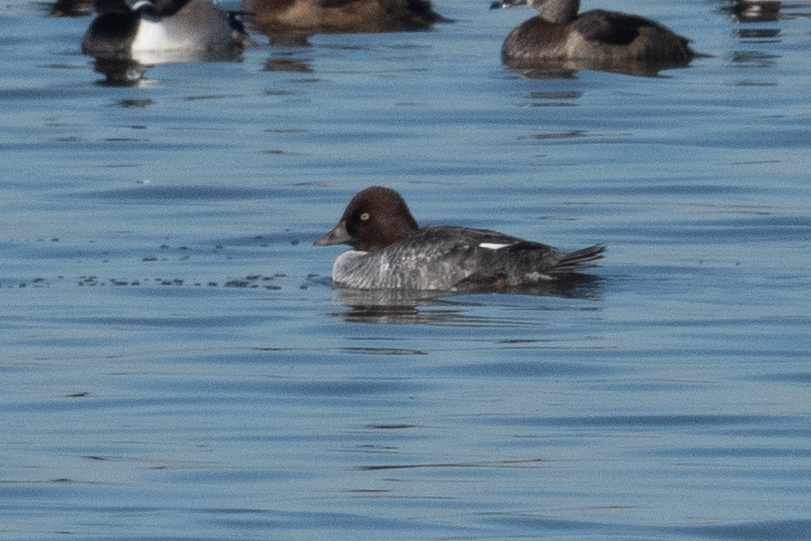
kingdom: Animalia
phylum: Chordata
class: Aves
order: Anseriformes
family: Anatidae
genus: Bucephala
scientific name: Bucephala clangula
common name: Common goldeneye
